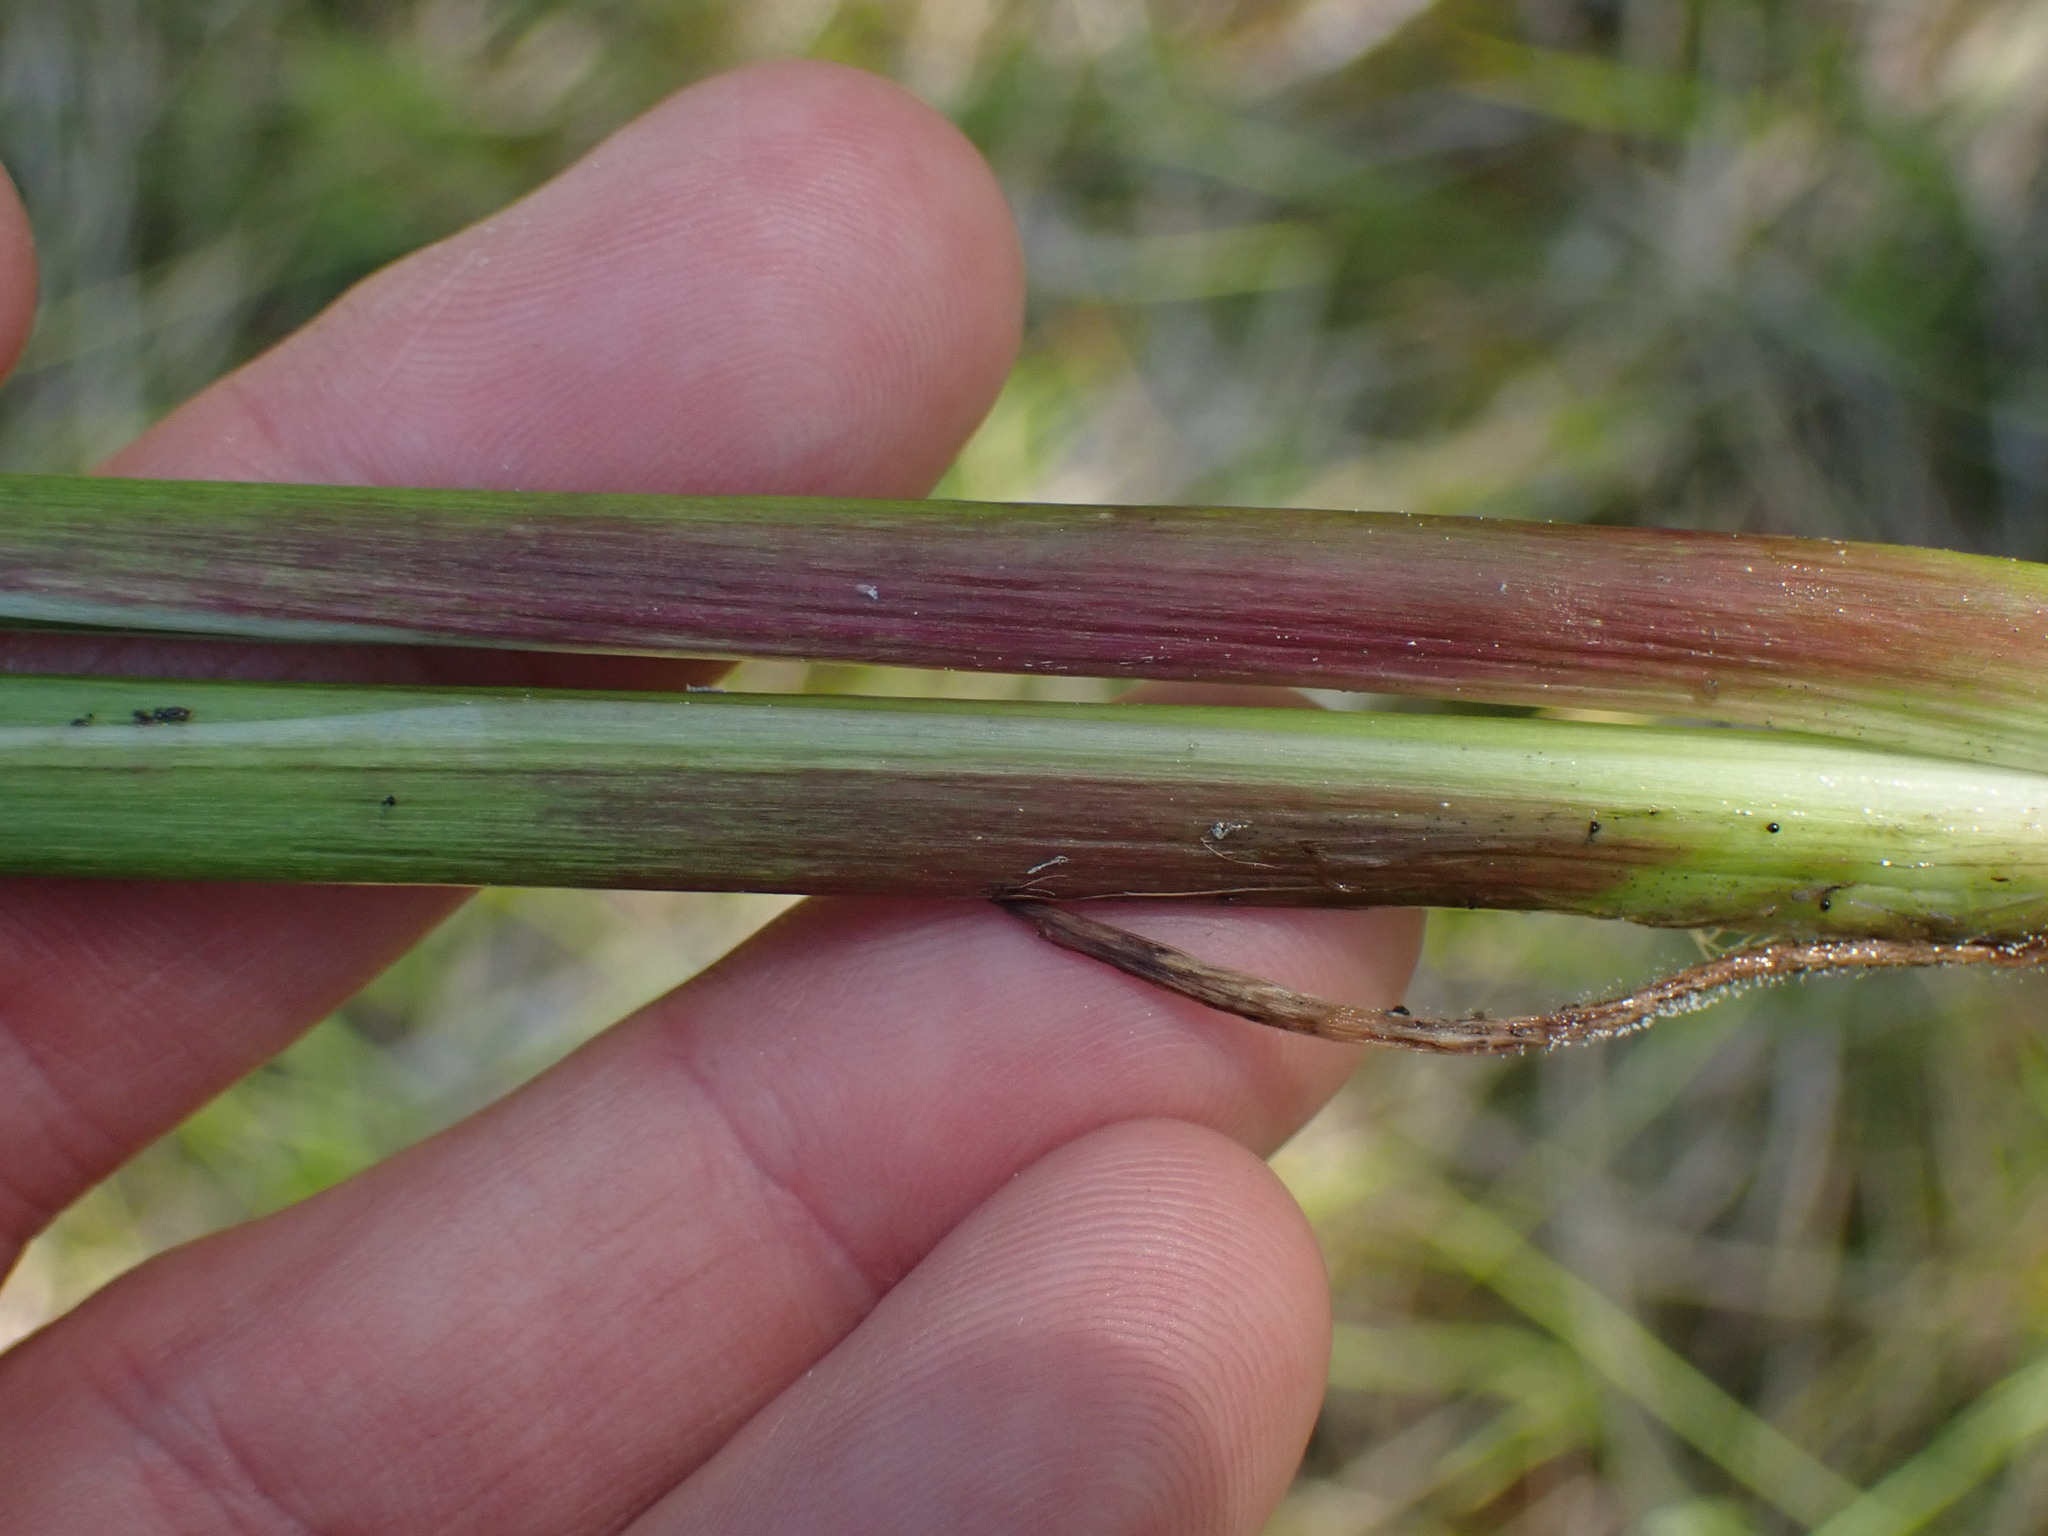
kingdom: Plantae
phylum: Tracheophyta
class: Liliopsida
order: Alismatales
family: Juncaginaceae
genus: Triglochin
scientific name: Triglochin maritima
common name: Sea arrowgrass
